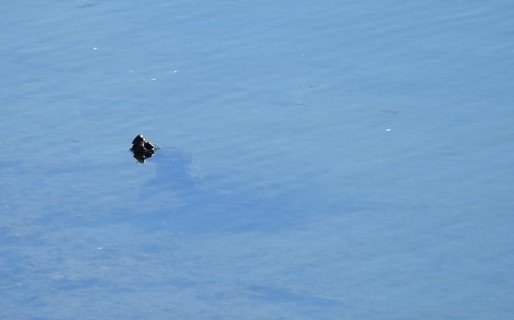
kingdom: Animalia
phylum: Chordata
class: Testudines
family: Chelydridae
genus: Chelydra
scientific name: Chelydra serpentina
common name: Common snapping turtle
